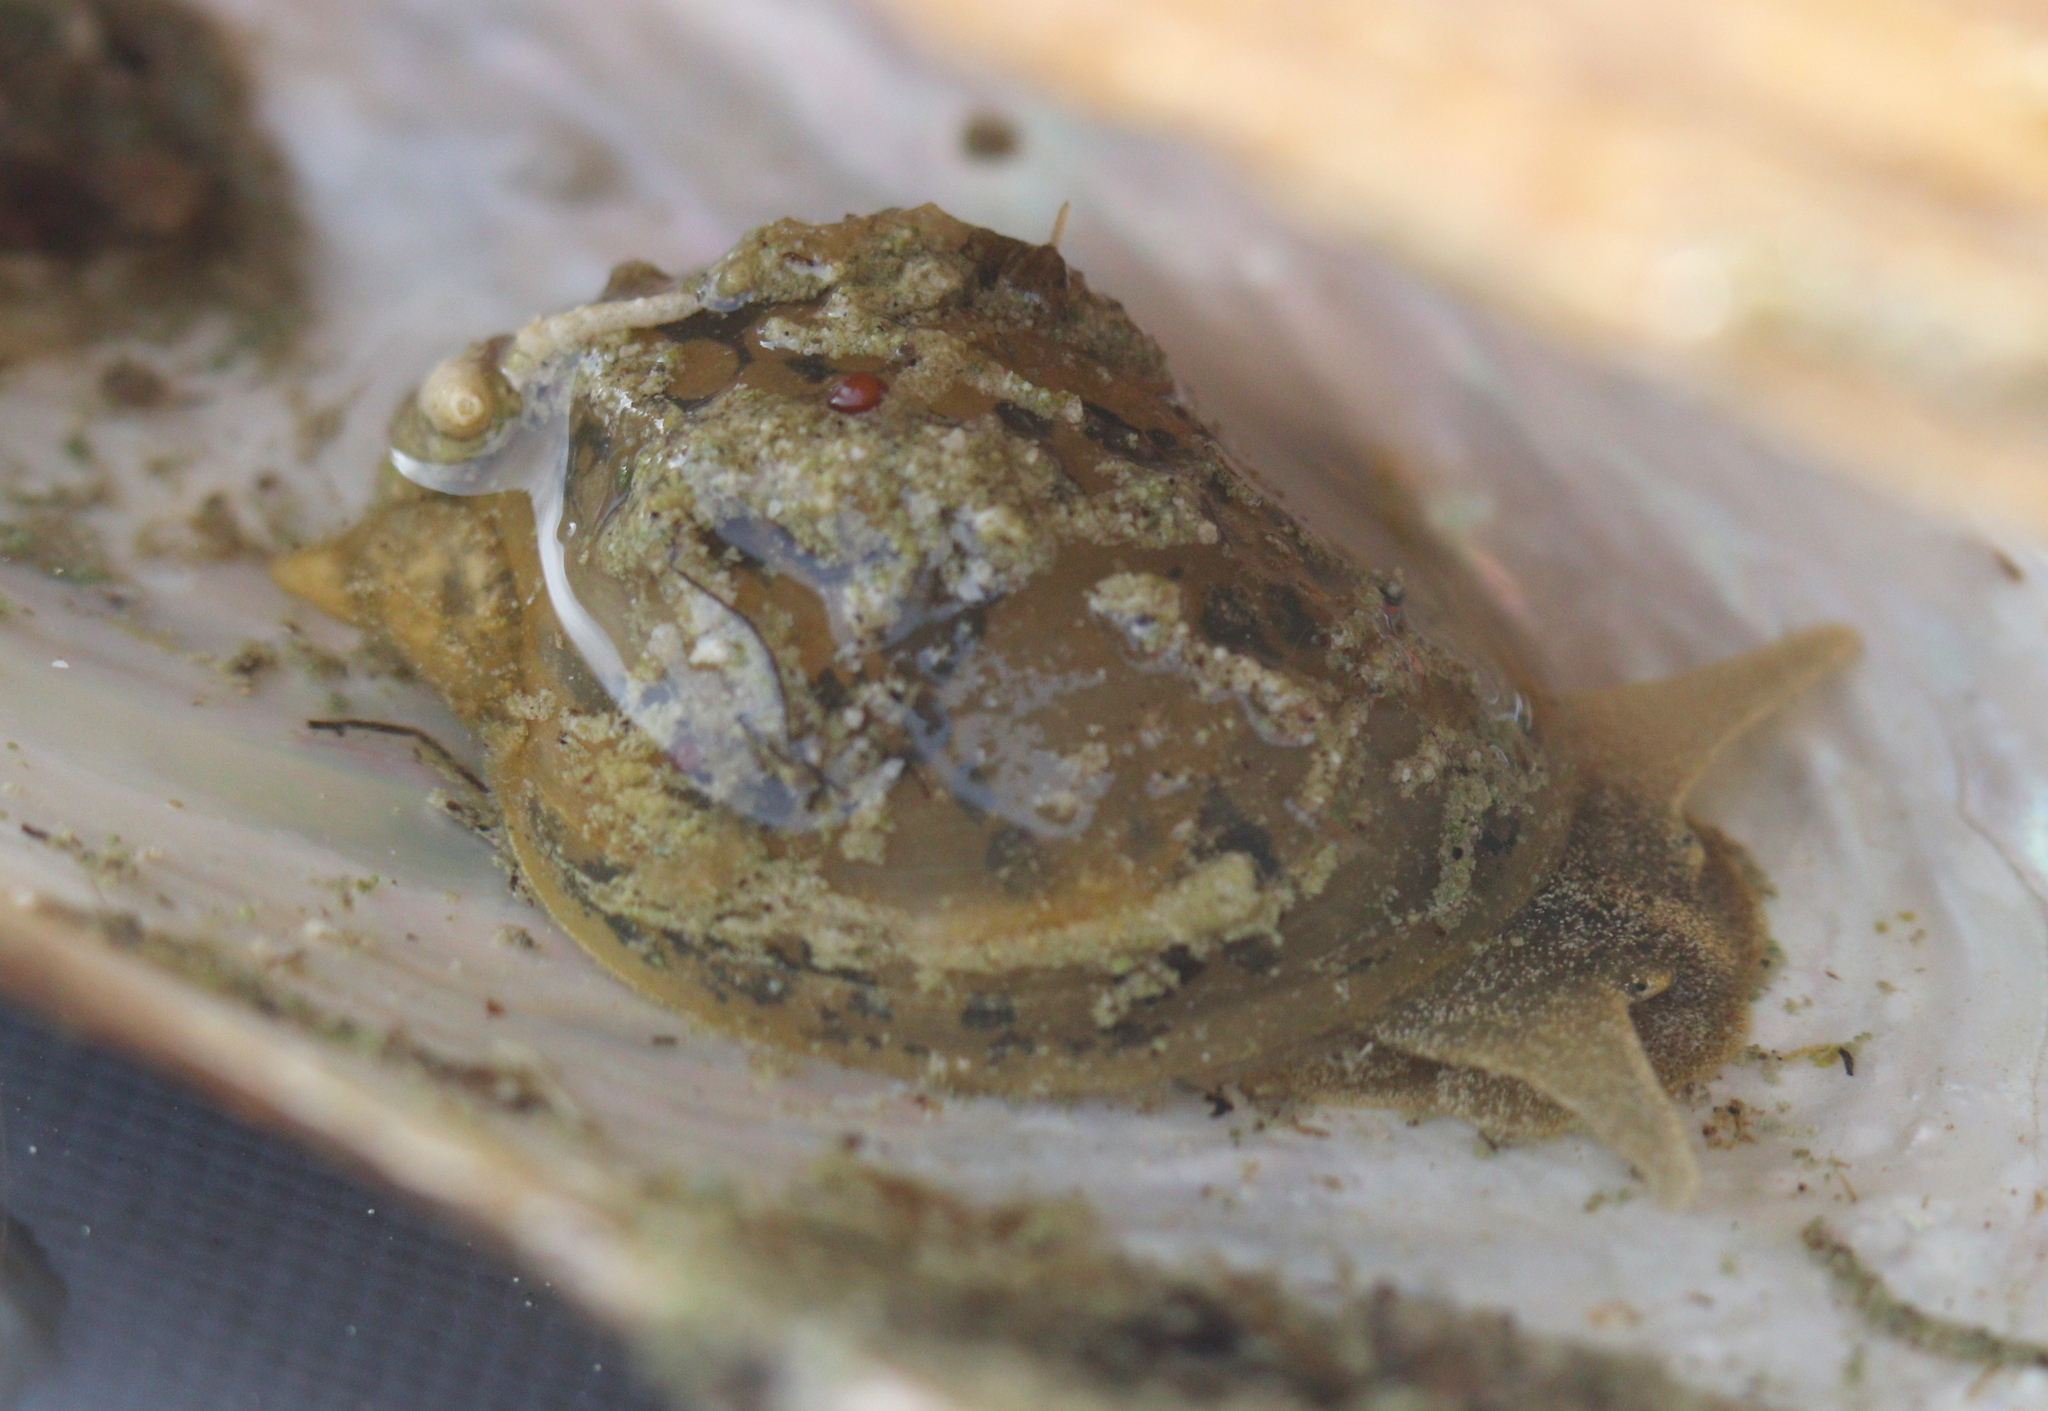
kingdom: Animalia
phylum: Mollusca
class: Gastropoda
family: Lymnaeidae
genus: Radix
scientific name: Radix auricularia
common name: Ear pond snail
